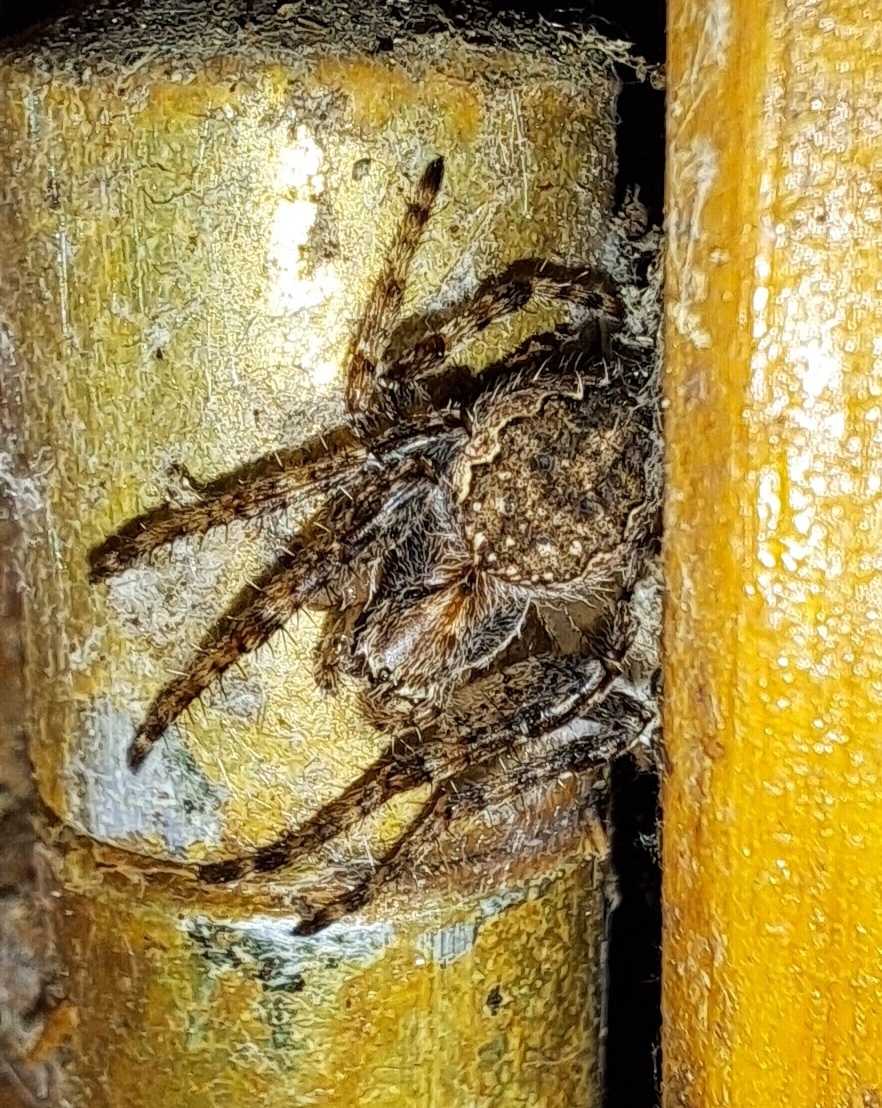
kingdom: Animalia
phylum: Arthropoda
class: Arachnida
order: Araneae
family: Araneidae
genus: Nuctenea
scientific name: Nuctenea umbratica
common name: Toad spider
